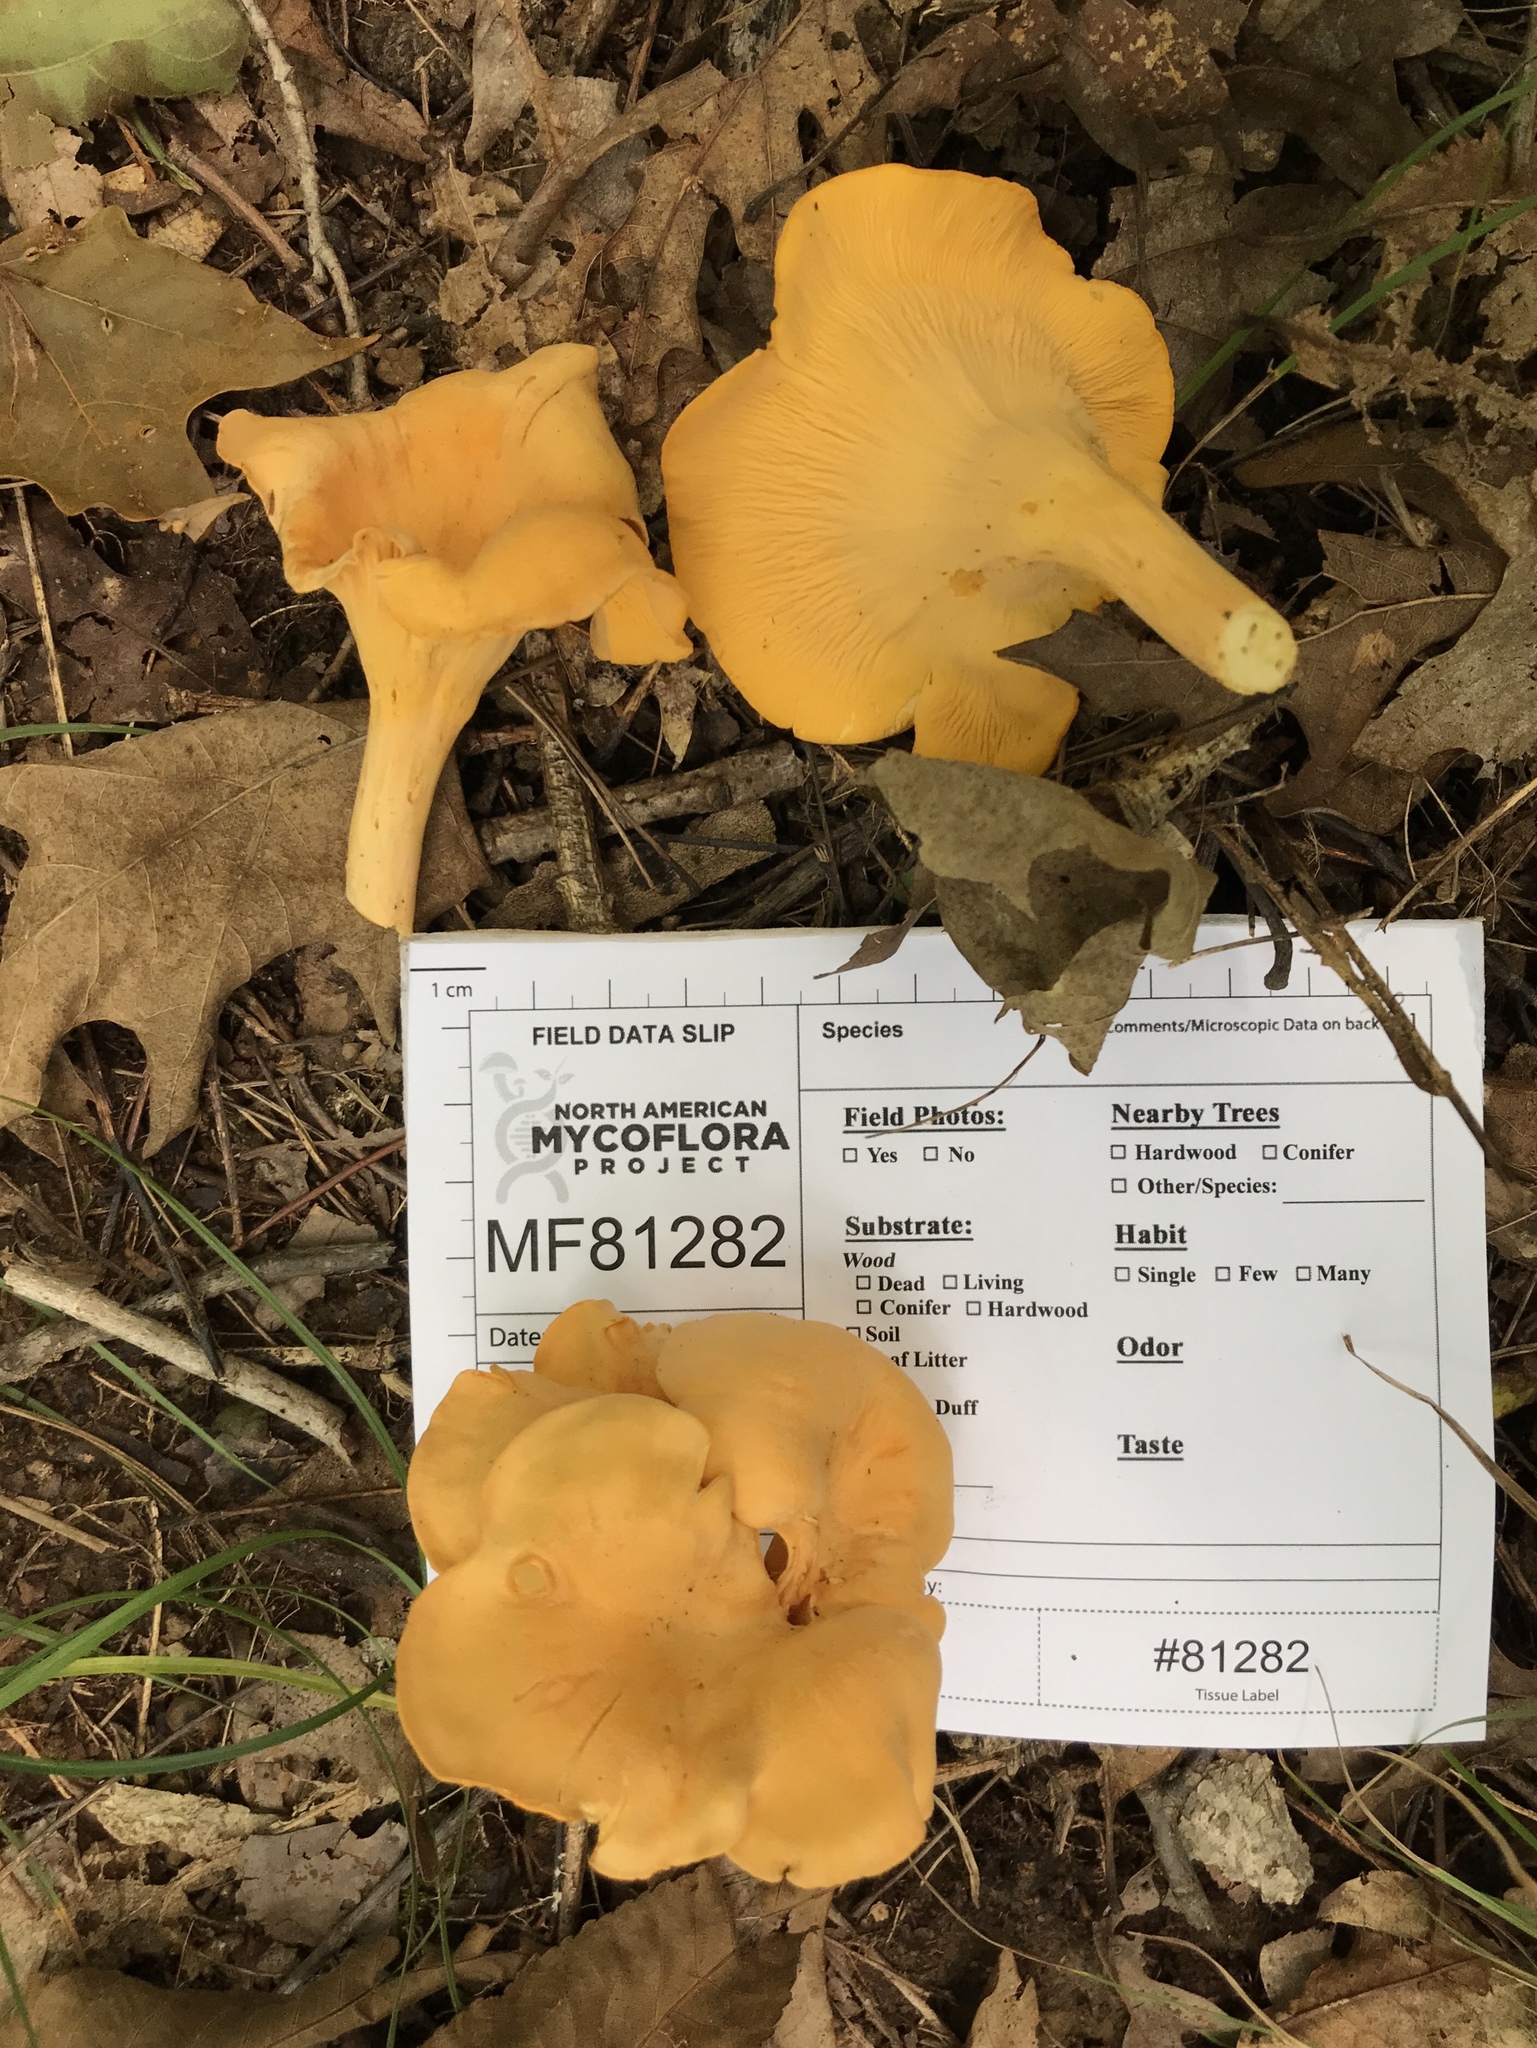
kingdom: Fungi
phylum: Basidiomycota
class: Agaricomycetes
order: Cantharellales
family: Hydnaceae
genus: Cantharellus
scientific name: Cantharellus flavolateritius
